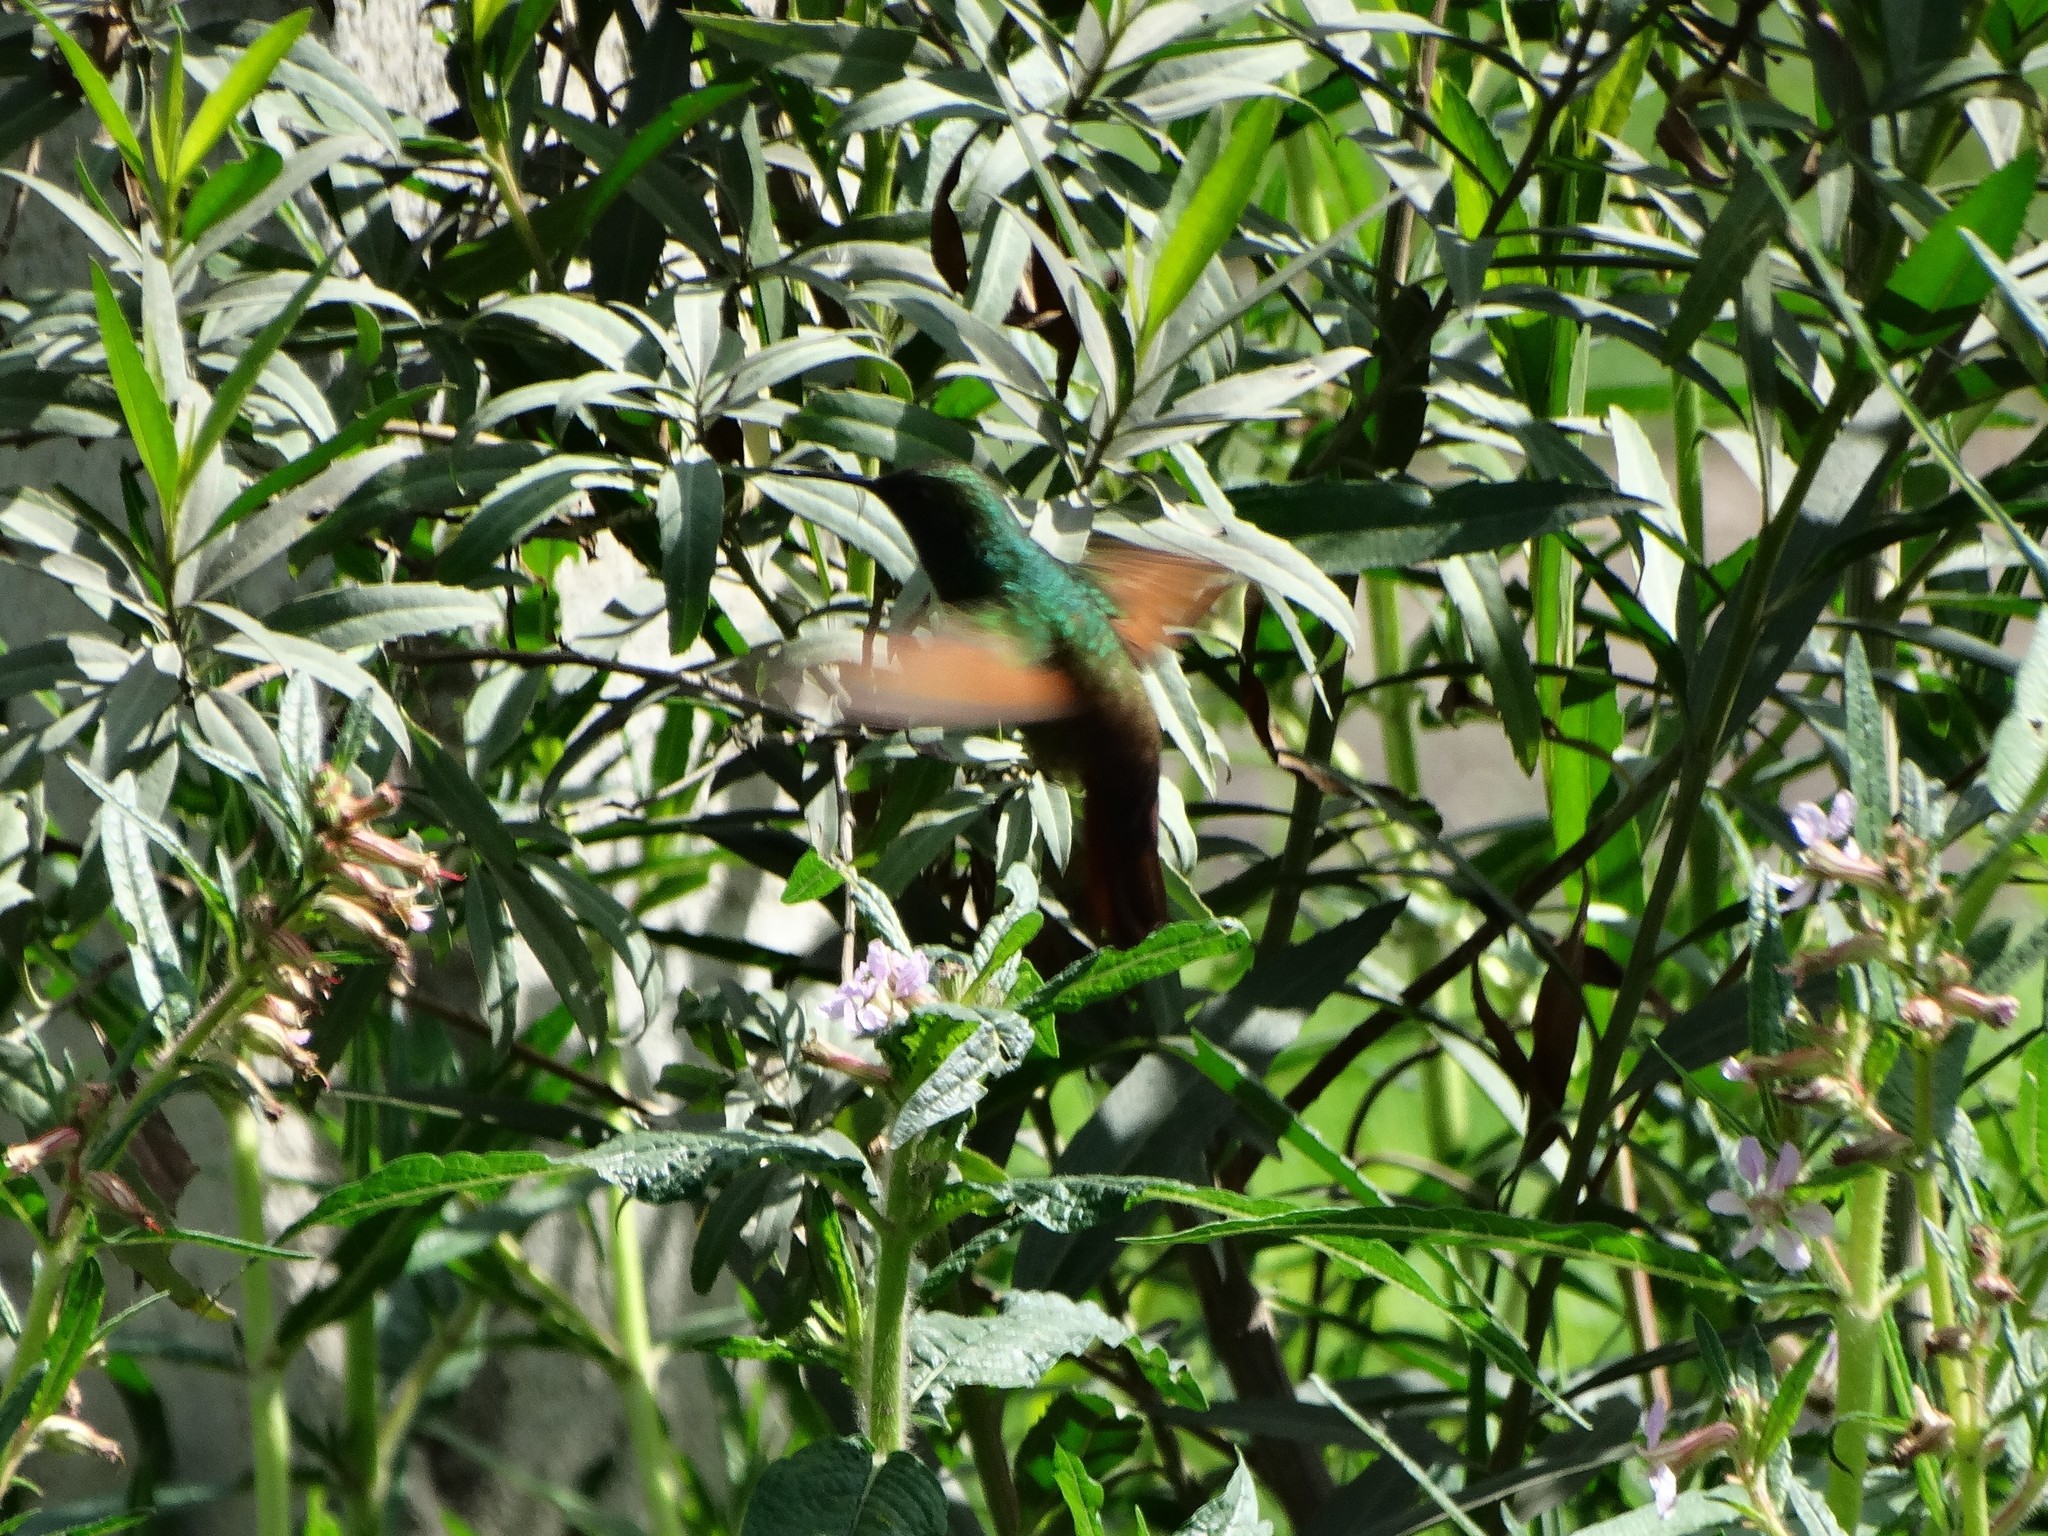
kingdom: Animalia
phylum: Chordata
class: Aves
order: Apodiformes
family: Trochilidae
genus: Saucerottia
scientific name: Saucerottia beryllina
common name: Berylline hummingbird
